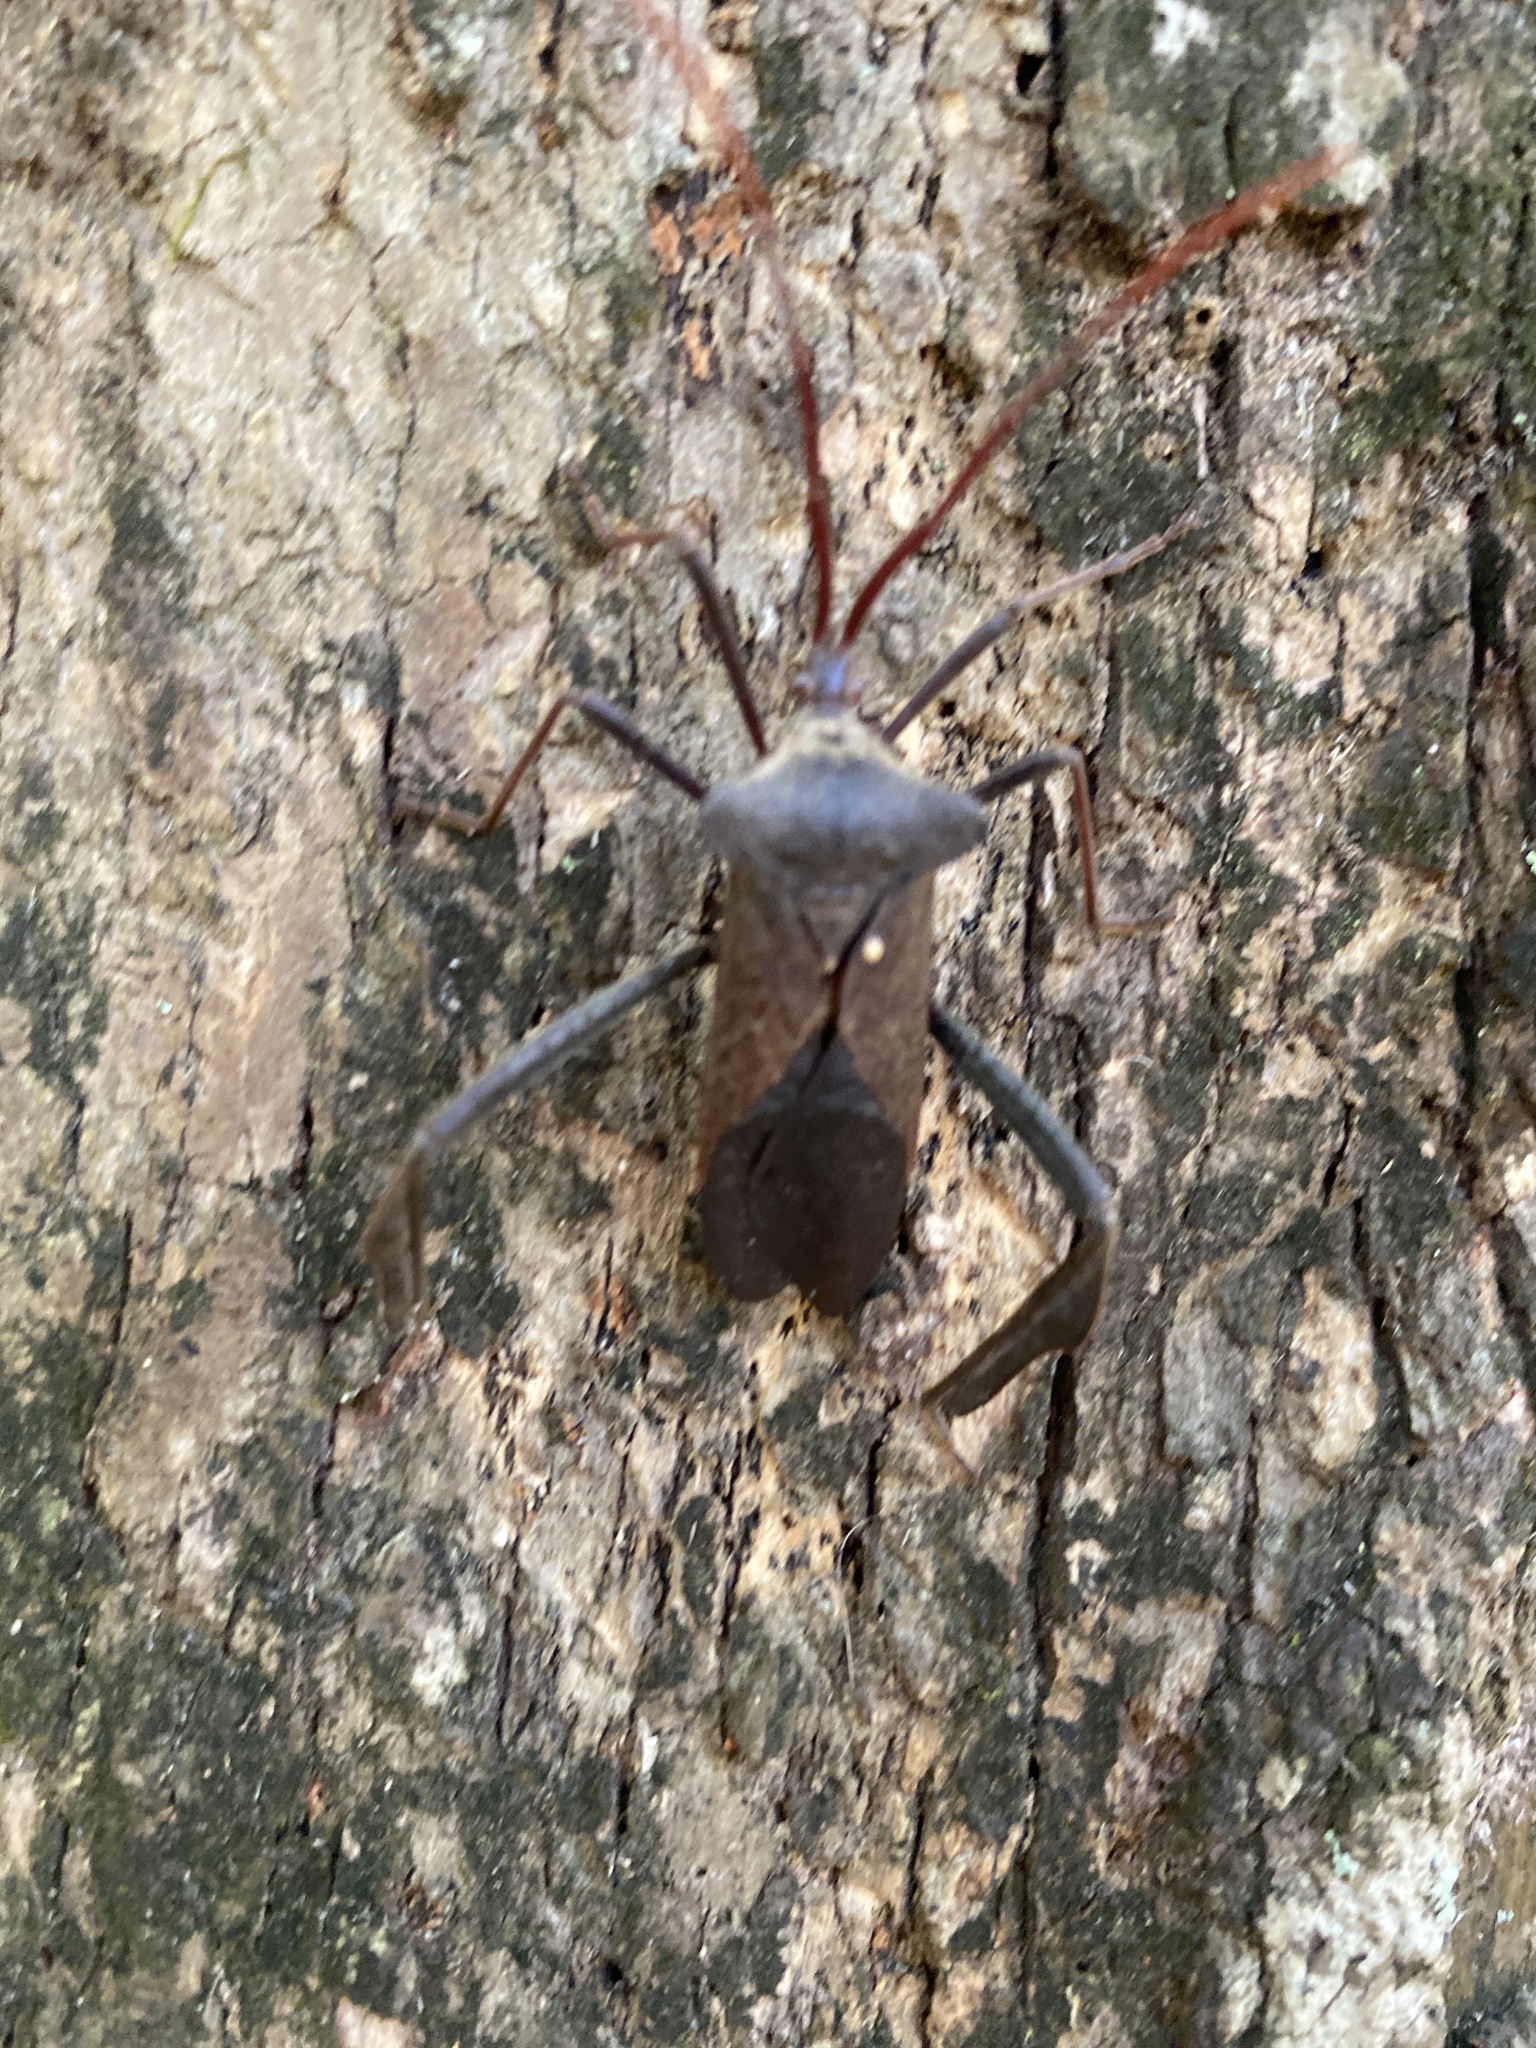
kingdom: Animalia
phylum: Arthropoda
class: Insecta
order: Hemiptera
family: Coreidae
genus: Acanthocephala
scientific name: Acanthocephala declivis
